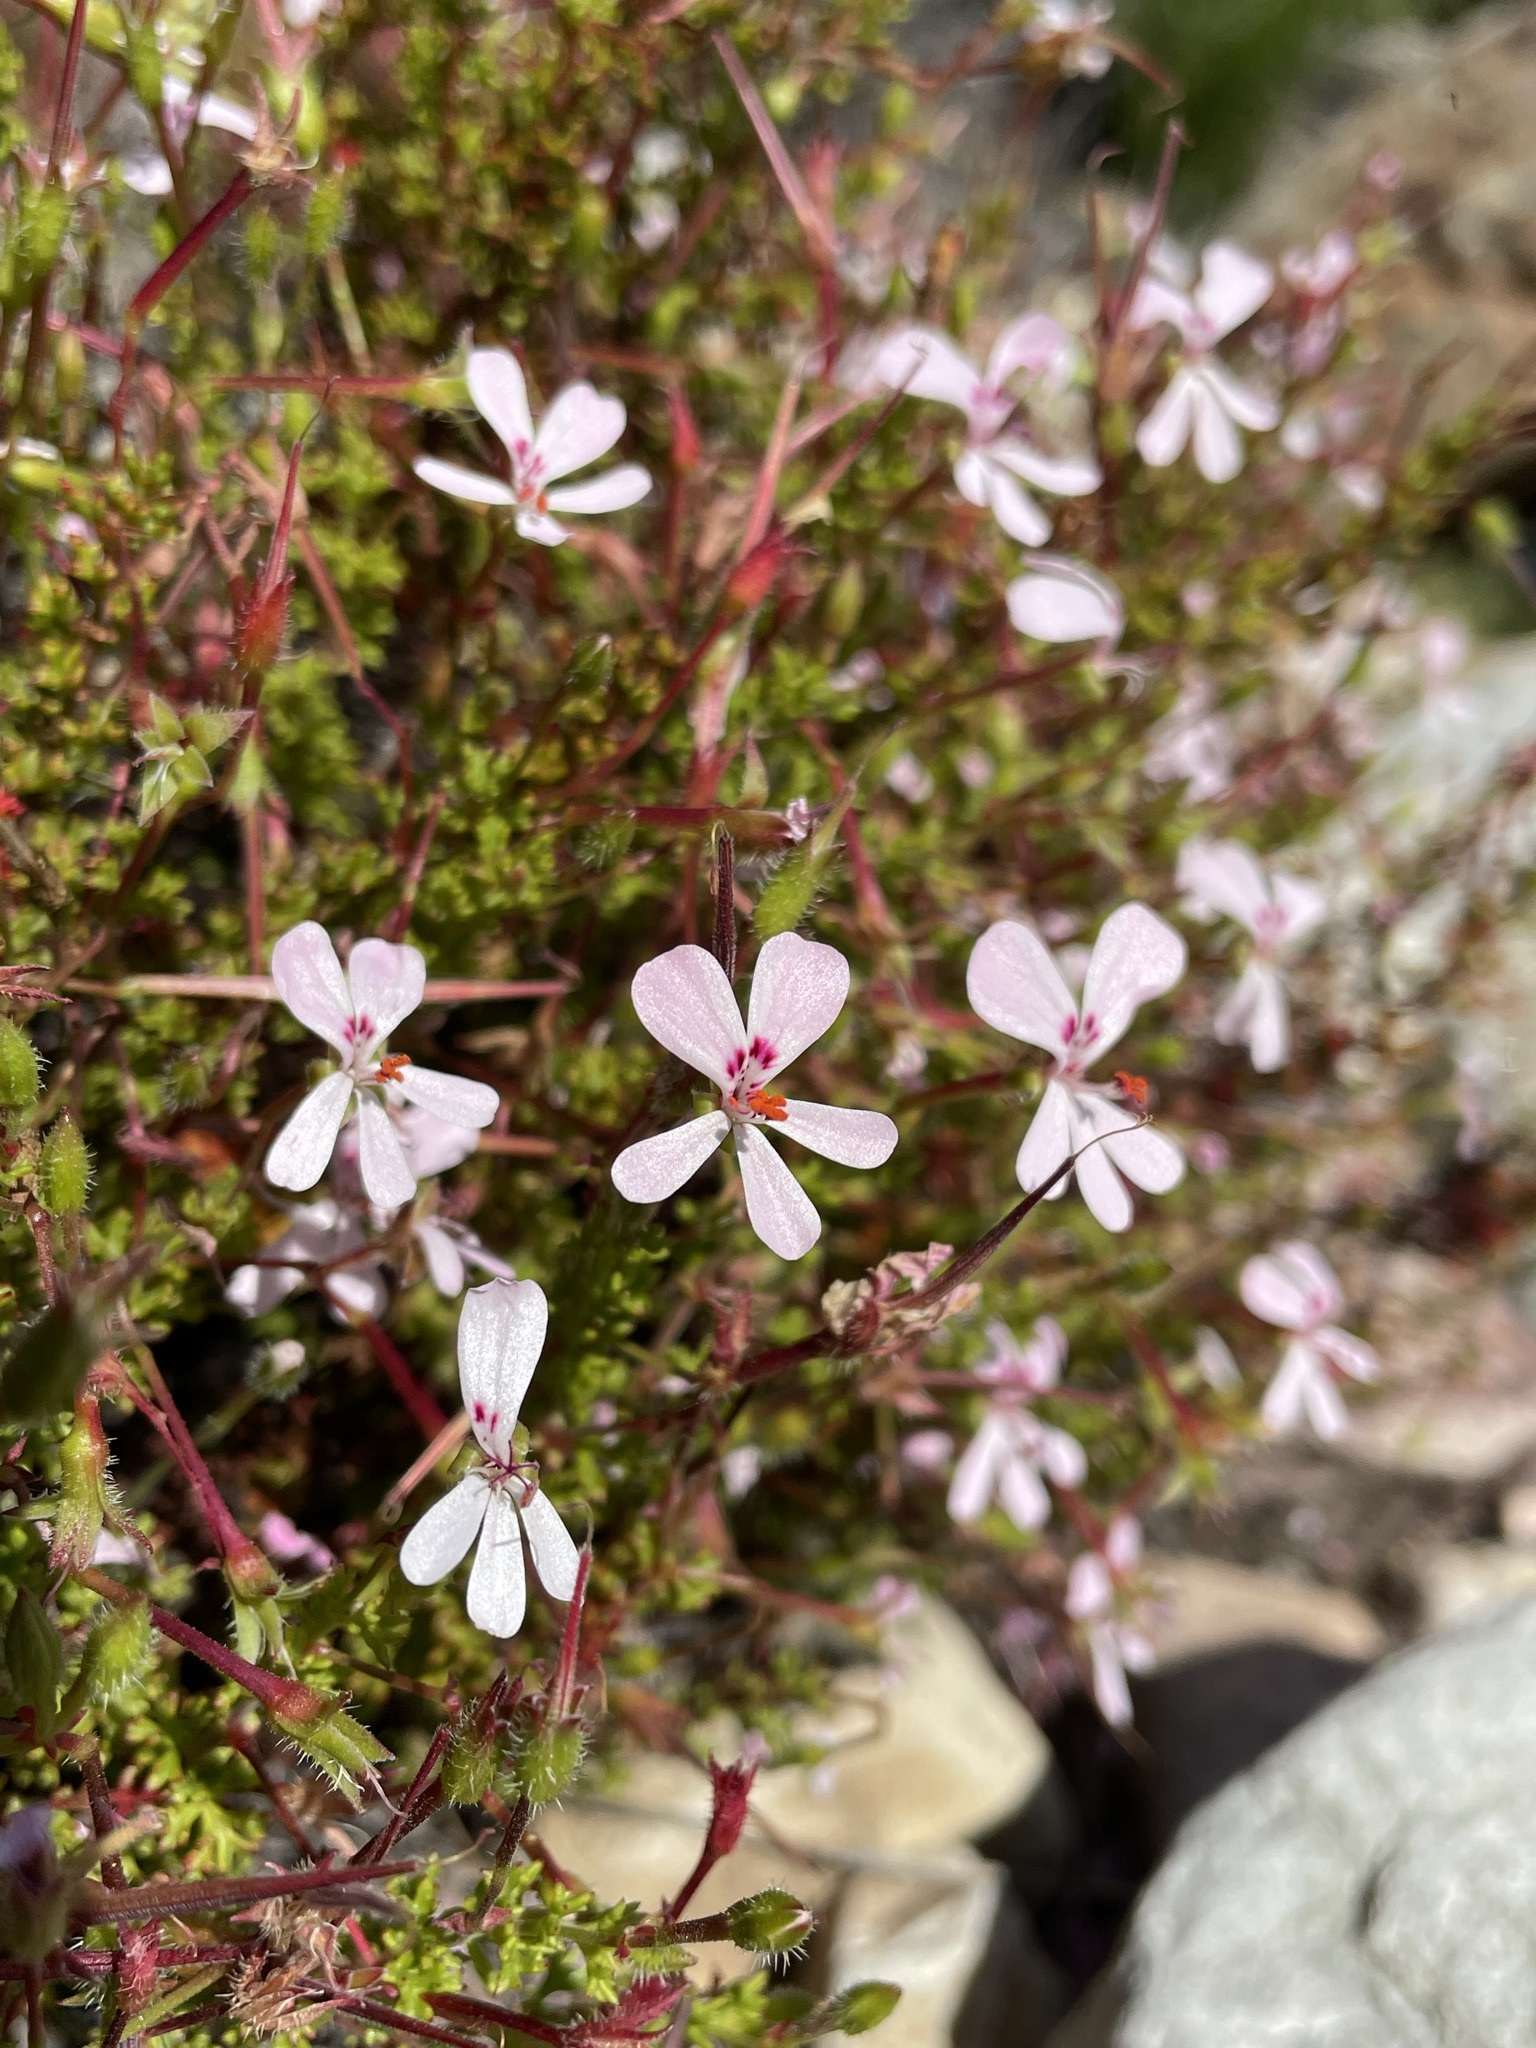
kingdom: Plantae
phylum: Tracheophyta
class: Magnoliopsida
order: Geraniales
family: Geraniaceae
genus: Pelargonium
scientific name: Pelargonium fruticosum
